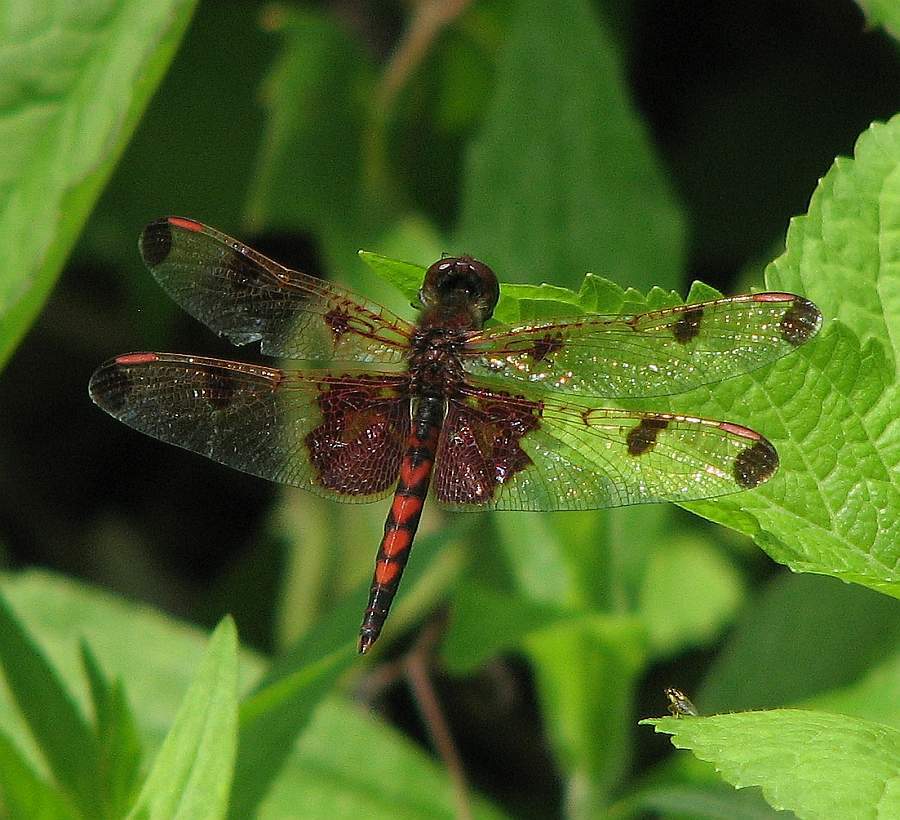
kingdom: Animalia
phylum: Arthropoda
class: Insecta
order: Odonata
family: Libellulidae
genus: Celithemis
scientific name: Celithemis elisa
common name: Calico pennant
